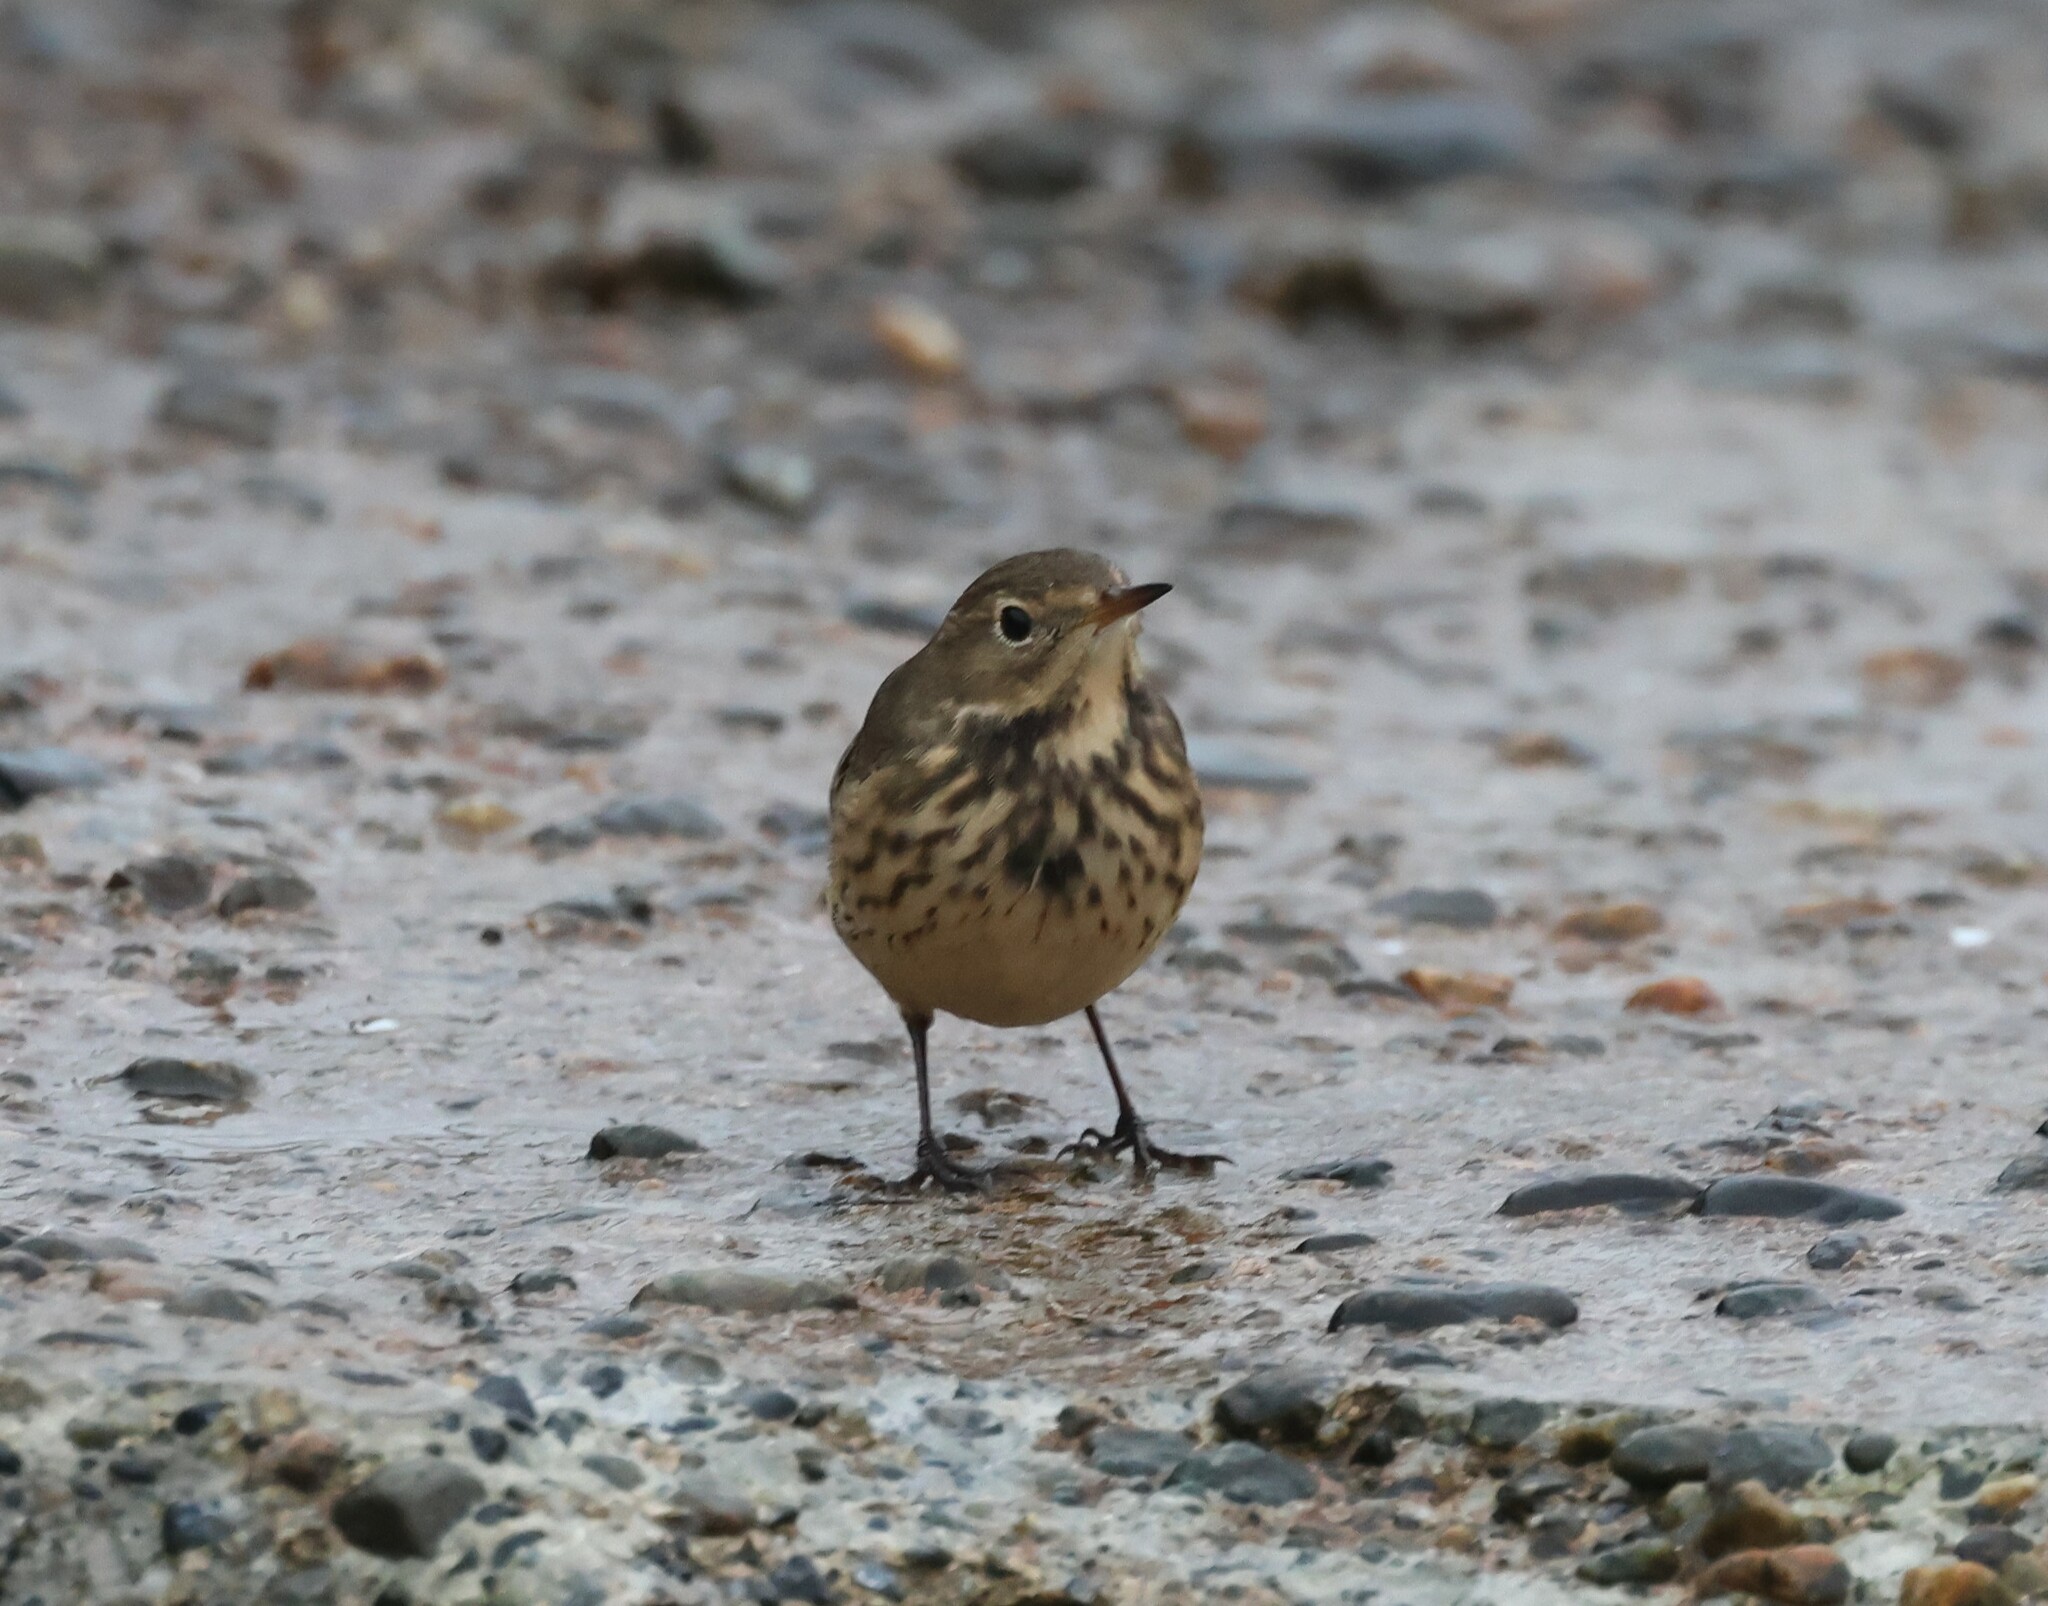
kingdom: Animalia
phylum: Chordata
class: Aves
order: Passeriformes
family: Motacillidae
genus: Anthus
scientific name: Anthus rubescens
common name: Buff-bellied pipit
